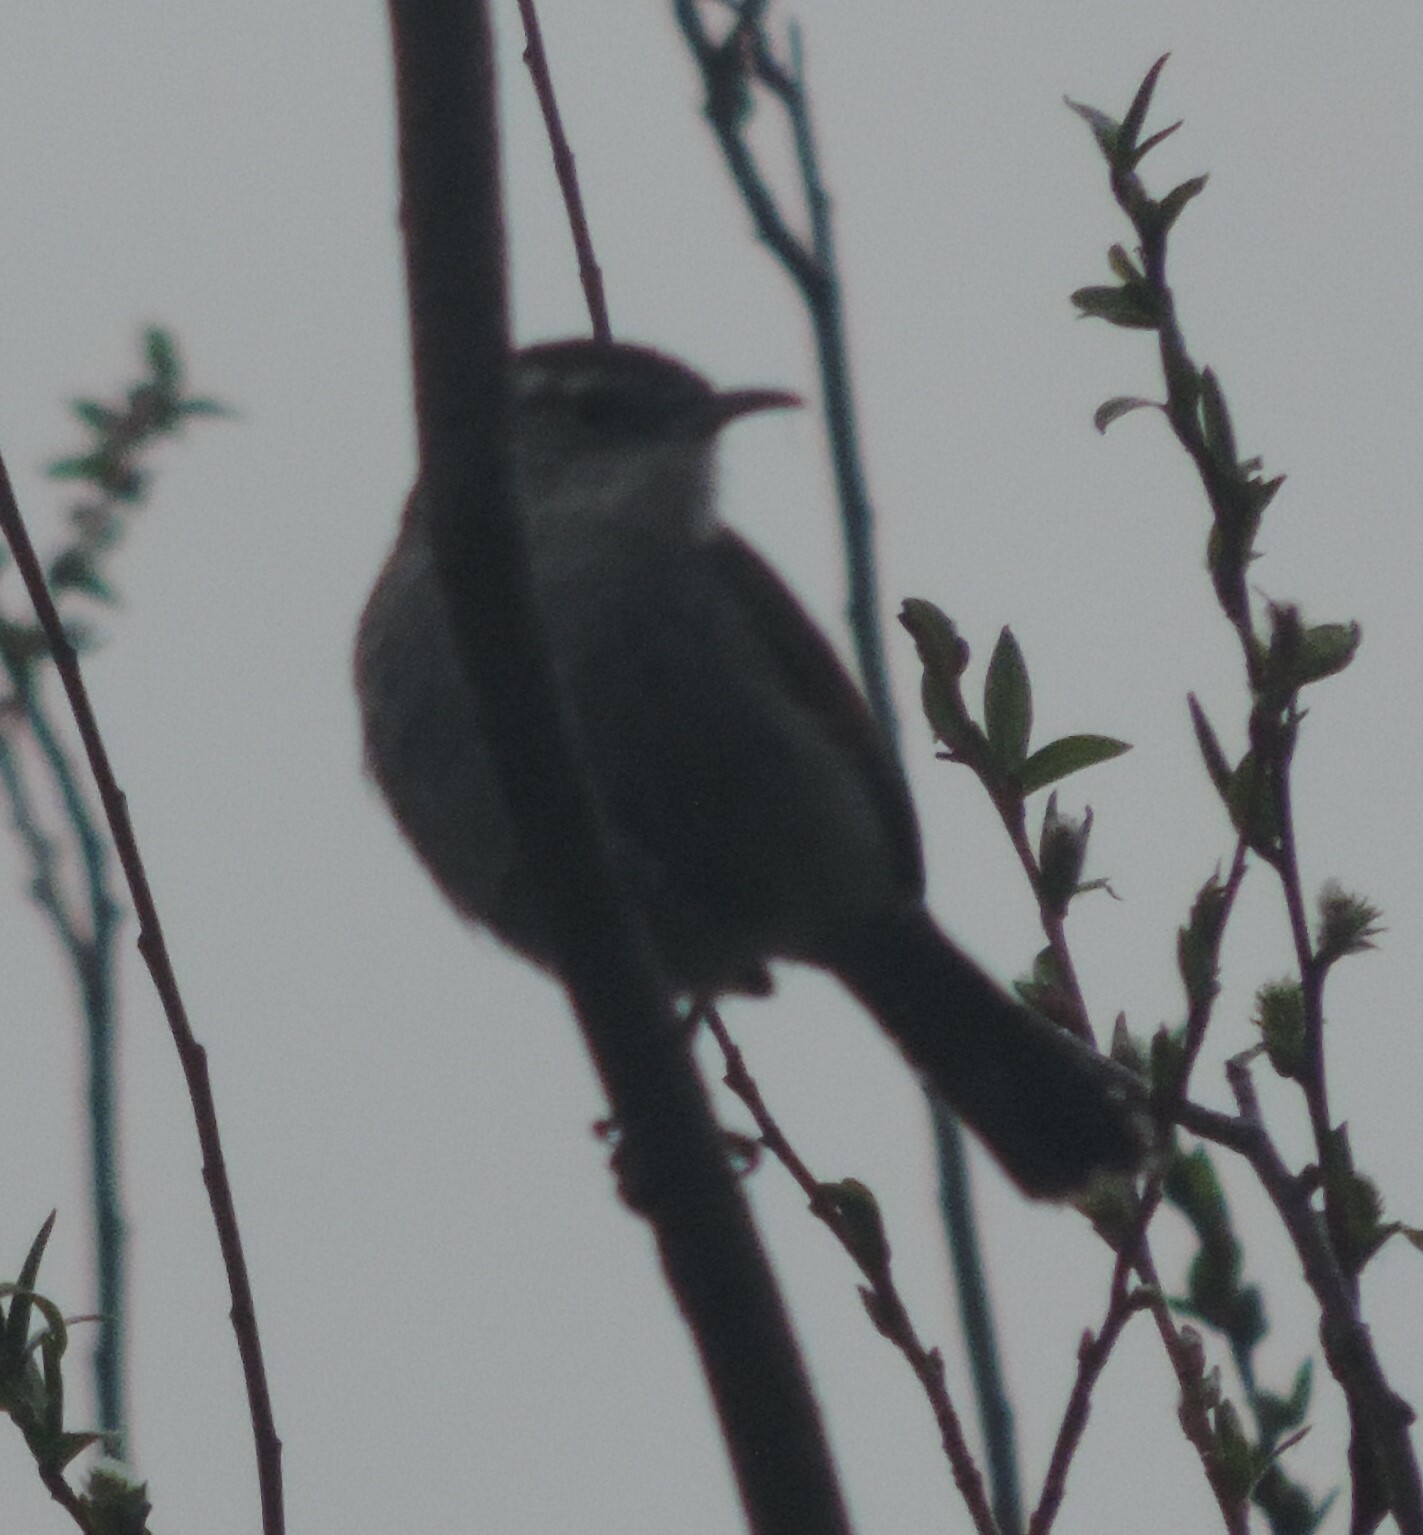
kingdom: Animalia
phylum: Chordata
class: Aves
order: Passeriformes
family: Troglodytidae
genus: Thryomanes
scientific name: Thryomanes bewickii
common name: Bewick's wren
